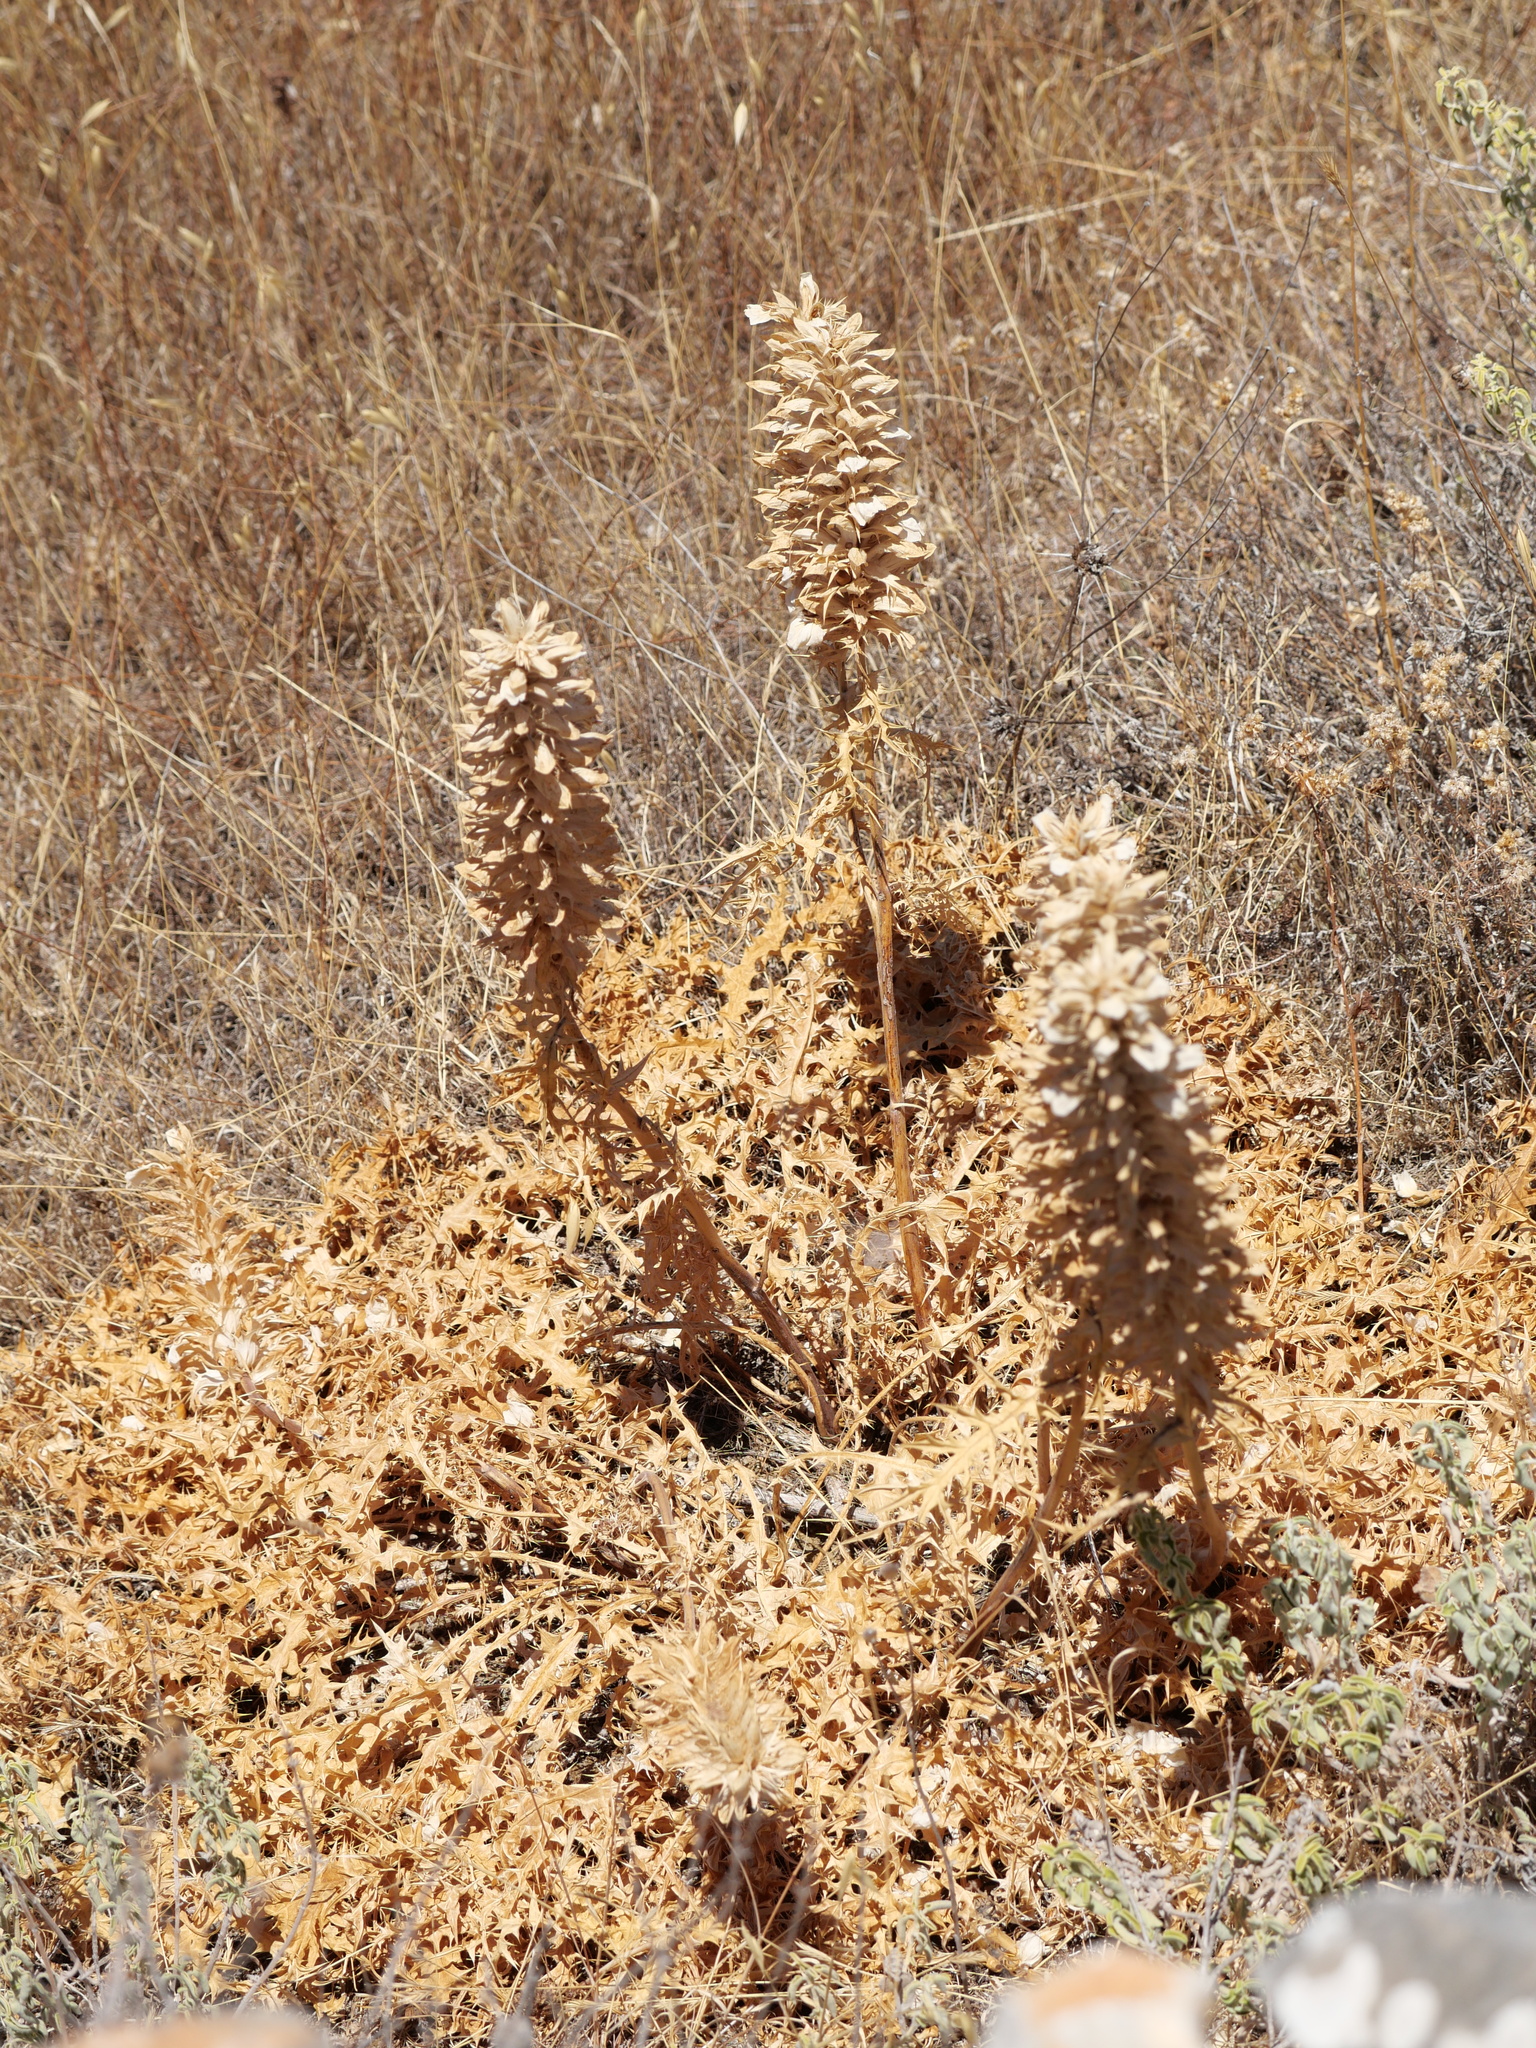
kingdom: Plantae
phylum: Tracheophyta
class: Magnoliopsida
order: Lamiales
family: Acanthaceae
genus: Acanthus
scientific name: Acanthus spinosus
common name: Spiny bear's-breech
